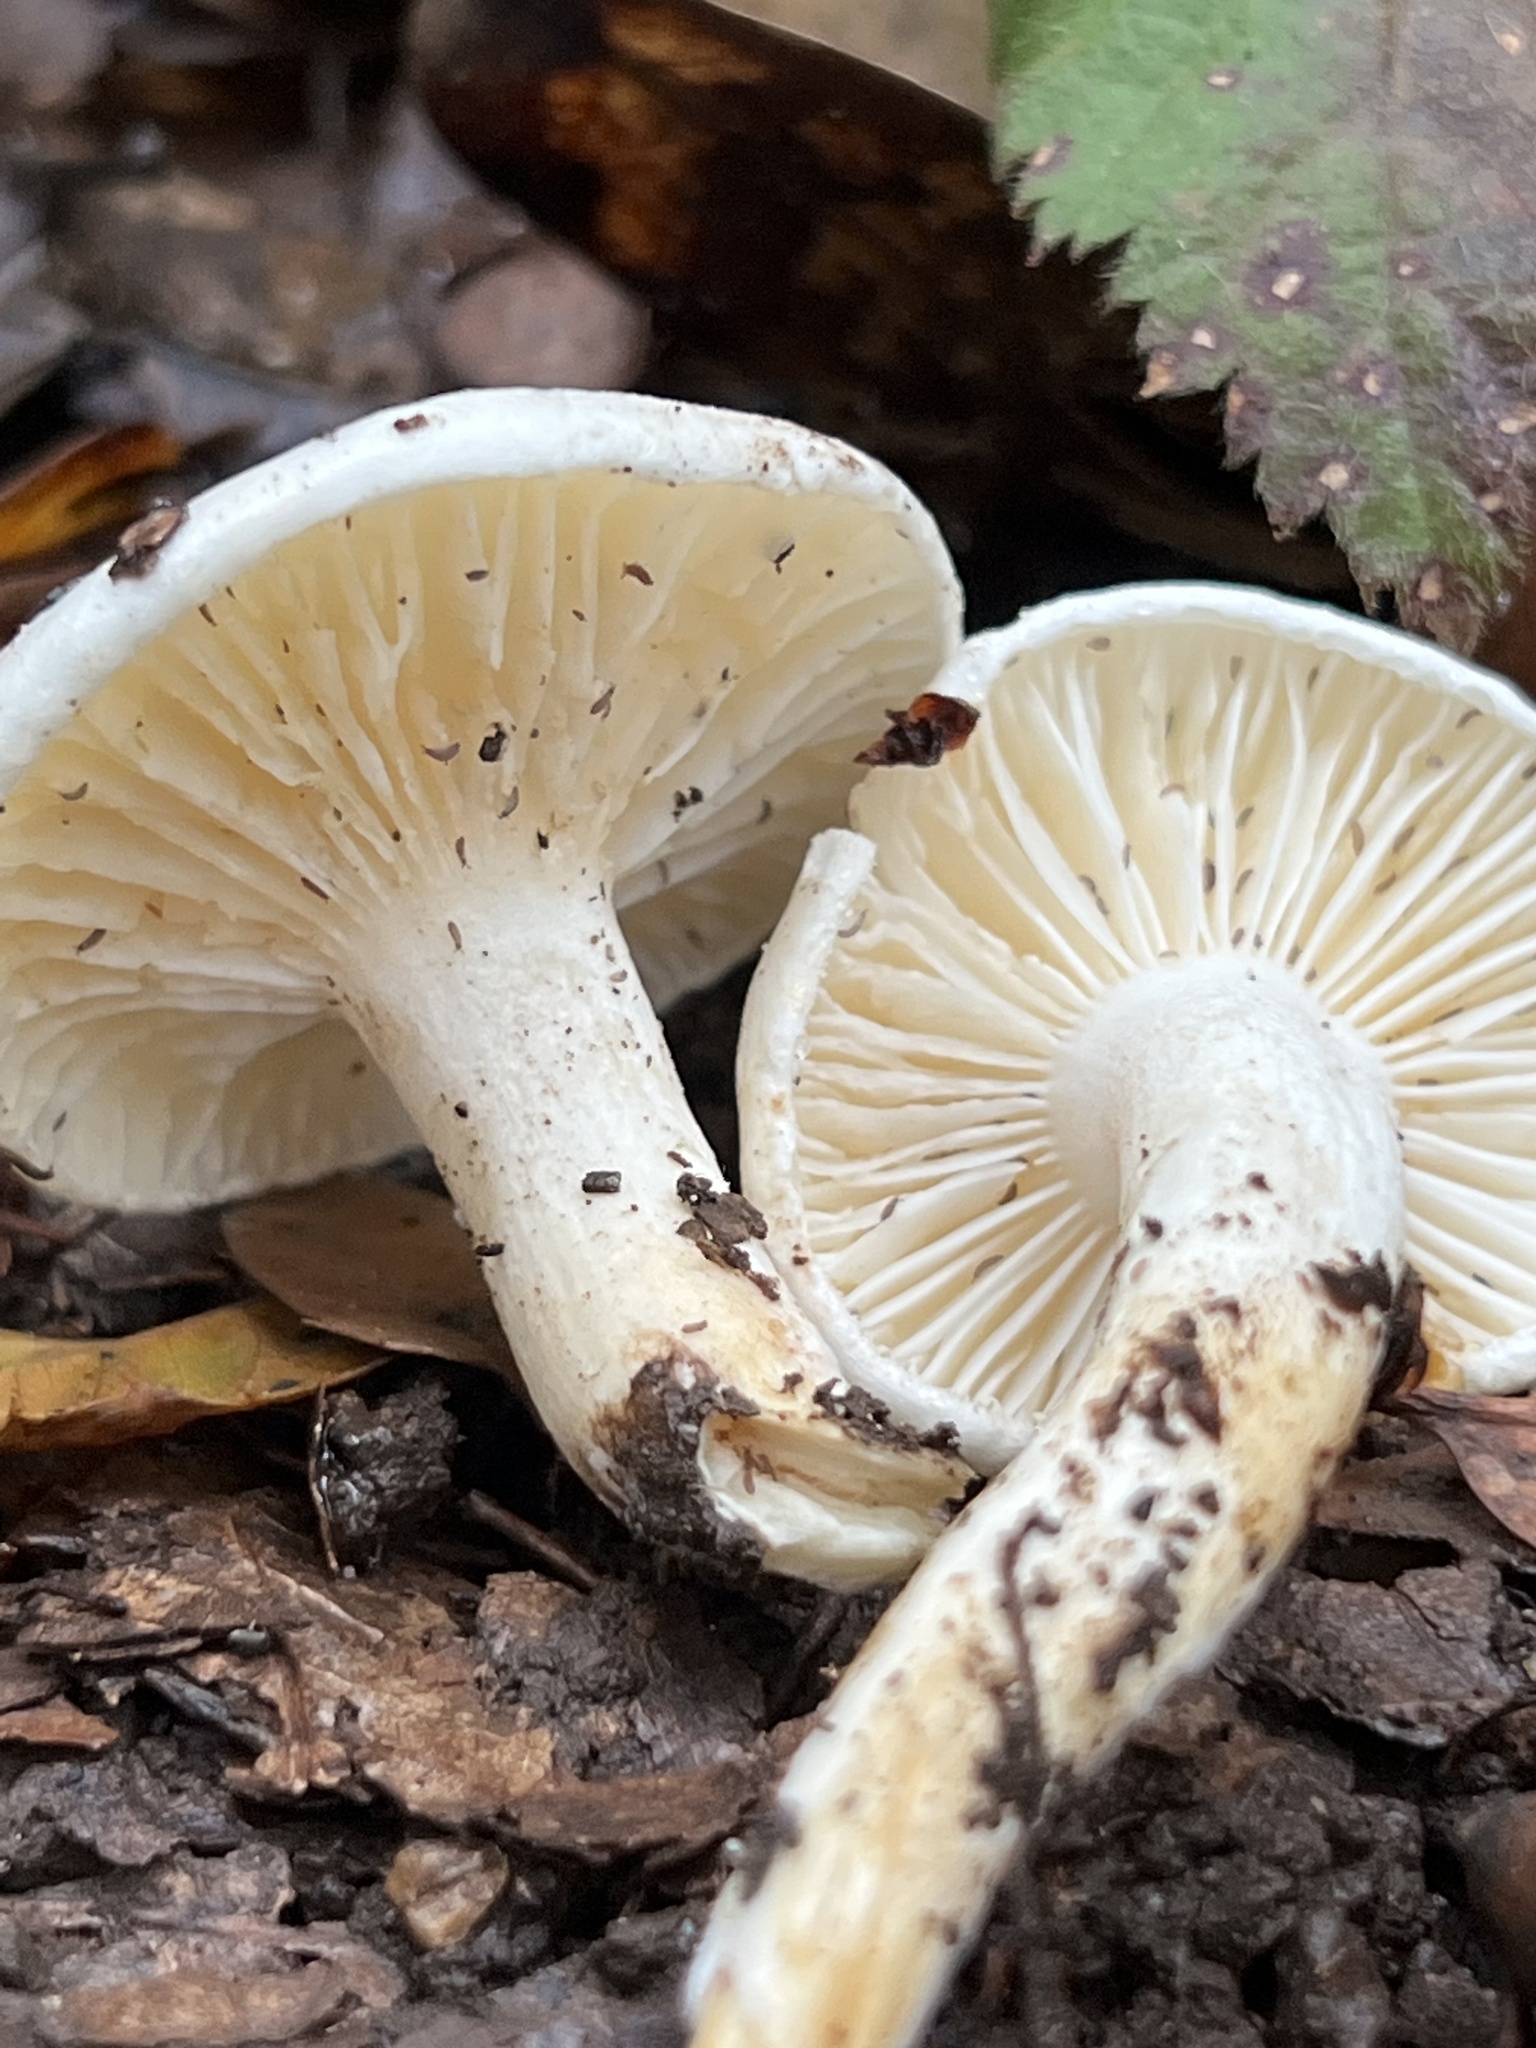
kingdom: Fungi
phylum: Basidiomycota
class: Agaricomycetes
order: Agaricales
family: Hygrophoraceae
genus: Hygrophorus
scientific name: Hygrophorus eburneus
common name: Ivory wax-cap
